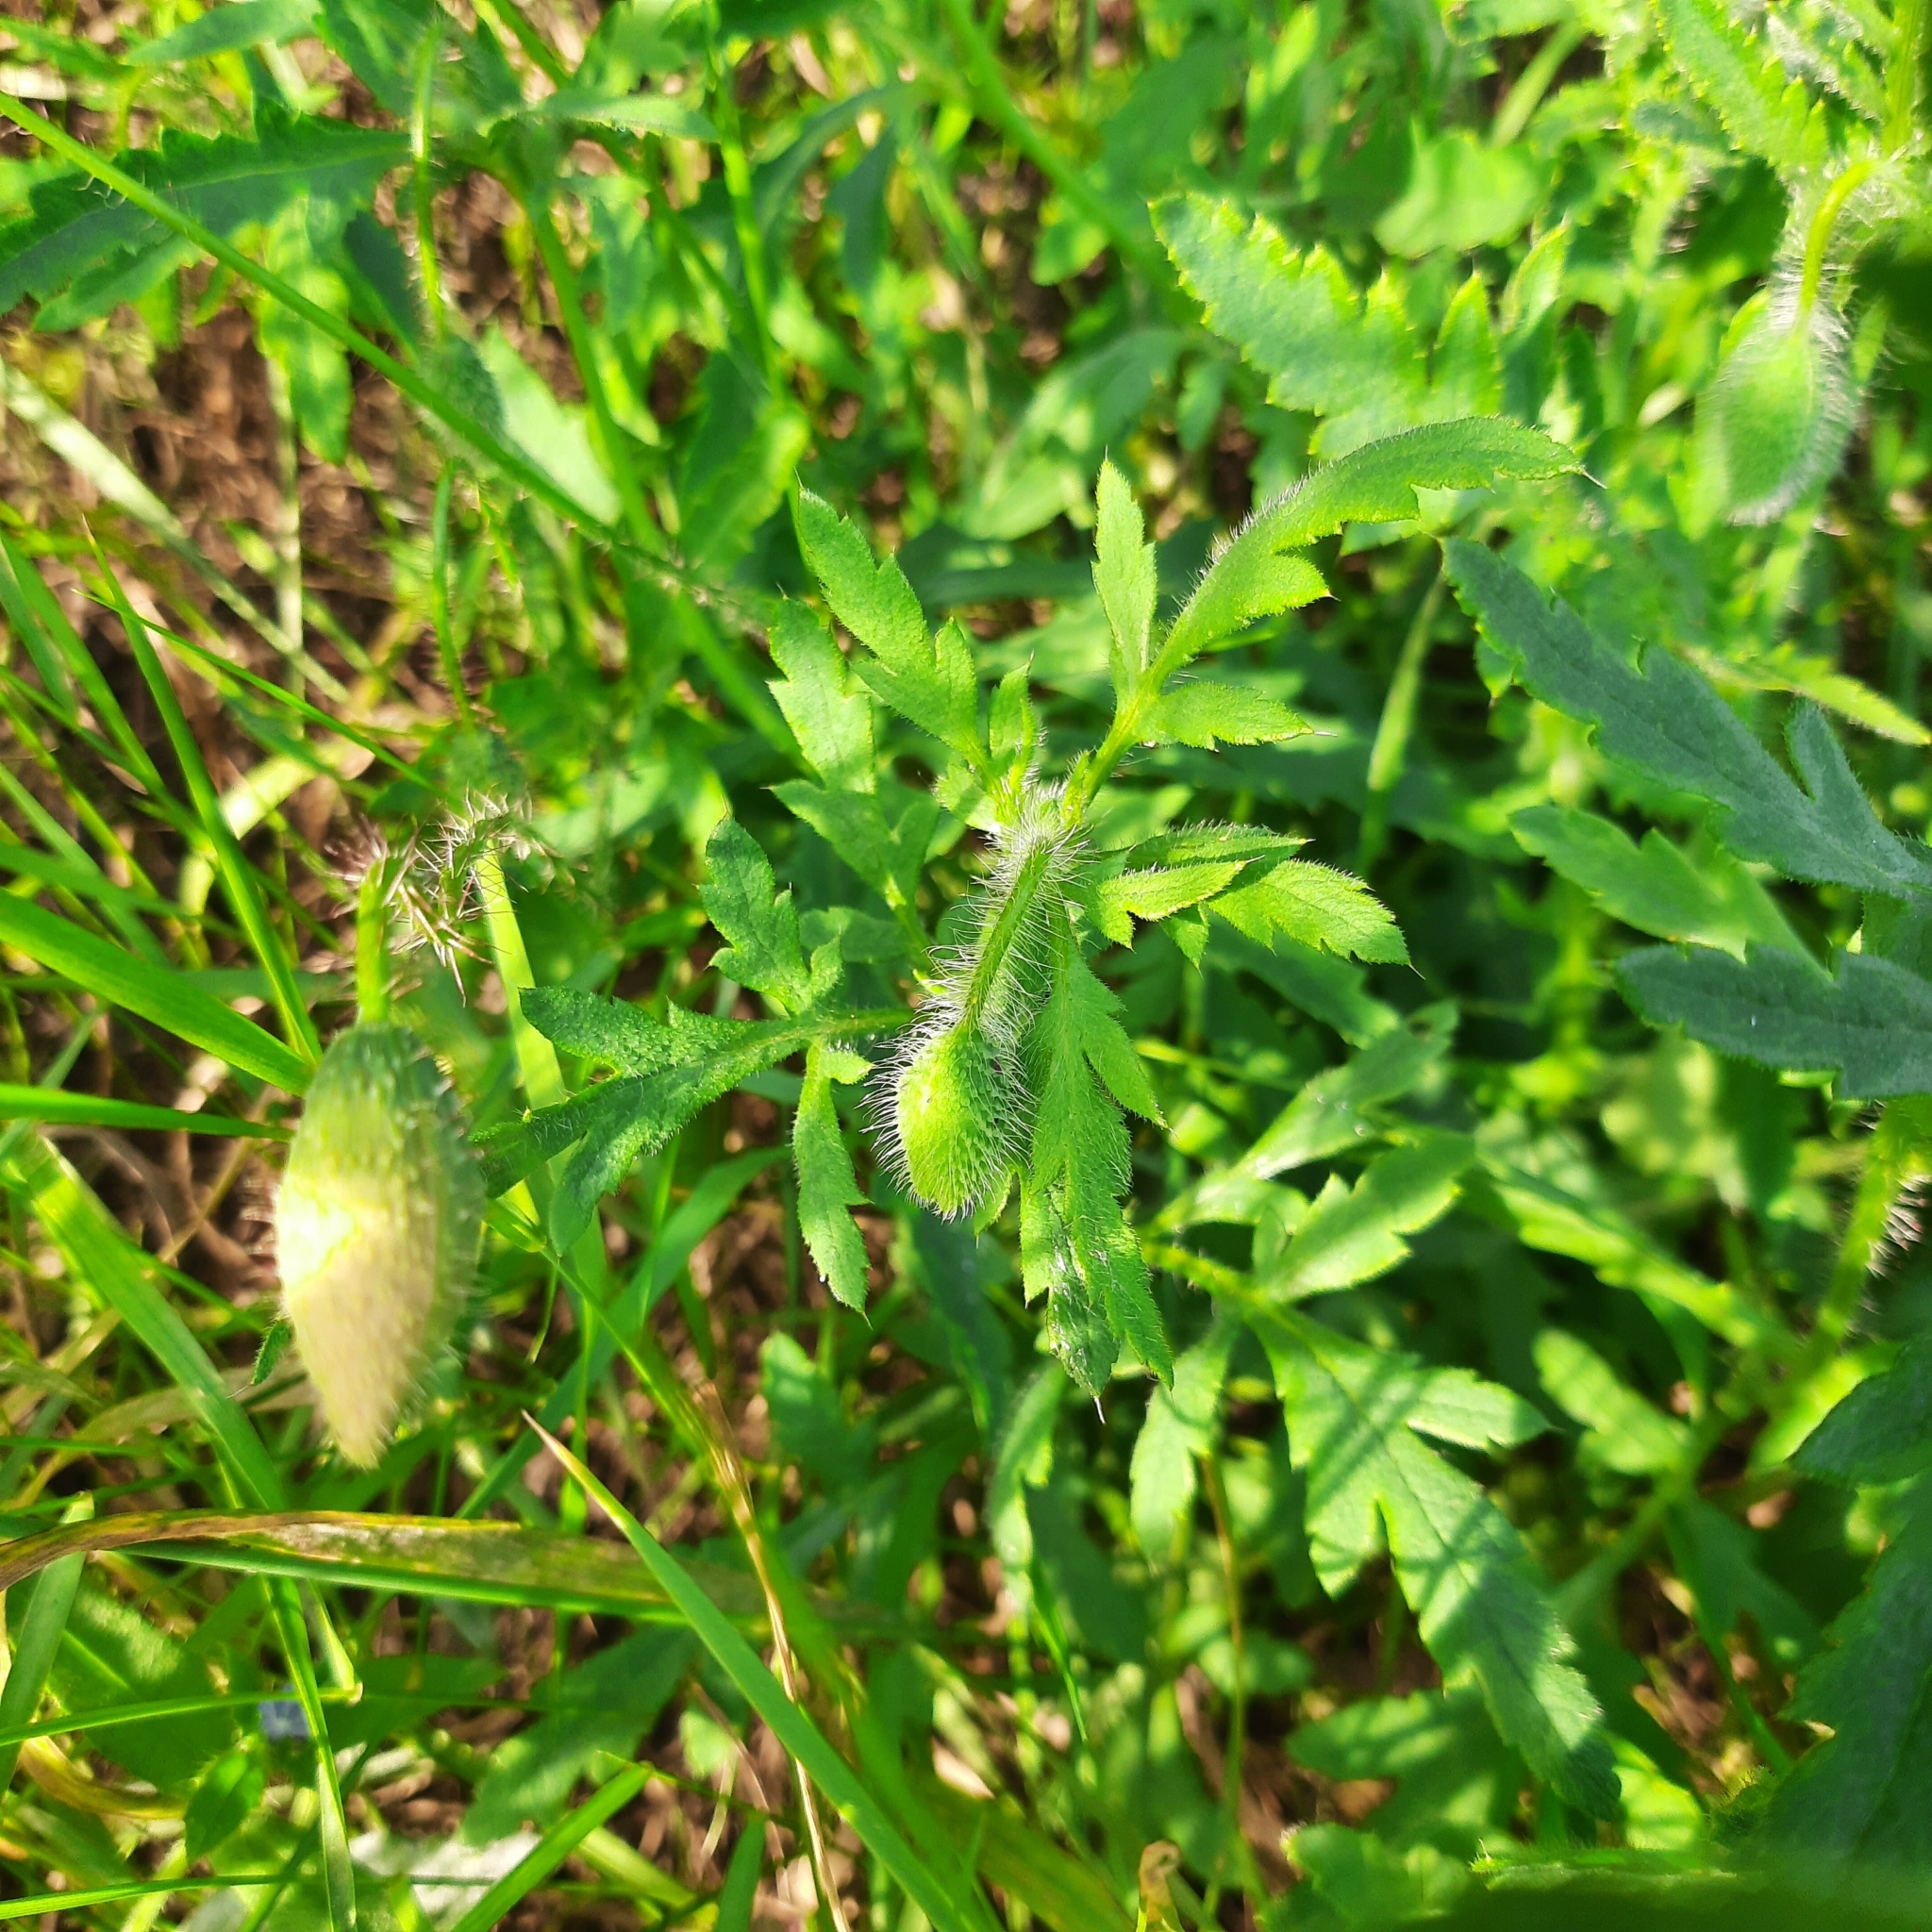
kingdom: Plantae
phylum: Tracheophyta
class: Magnoliopsida
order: Ranunculales
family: Papaveraceae
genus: Papaver
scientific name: Papaver rhoeas
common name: Corn poppy
